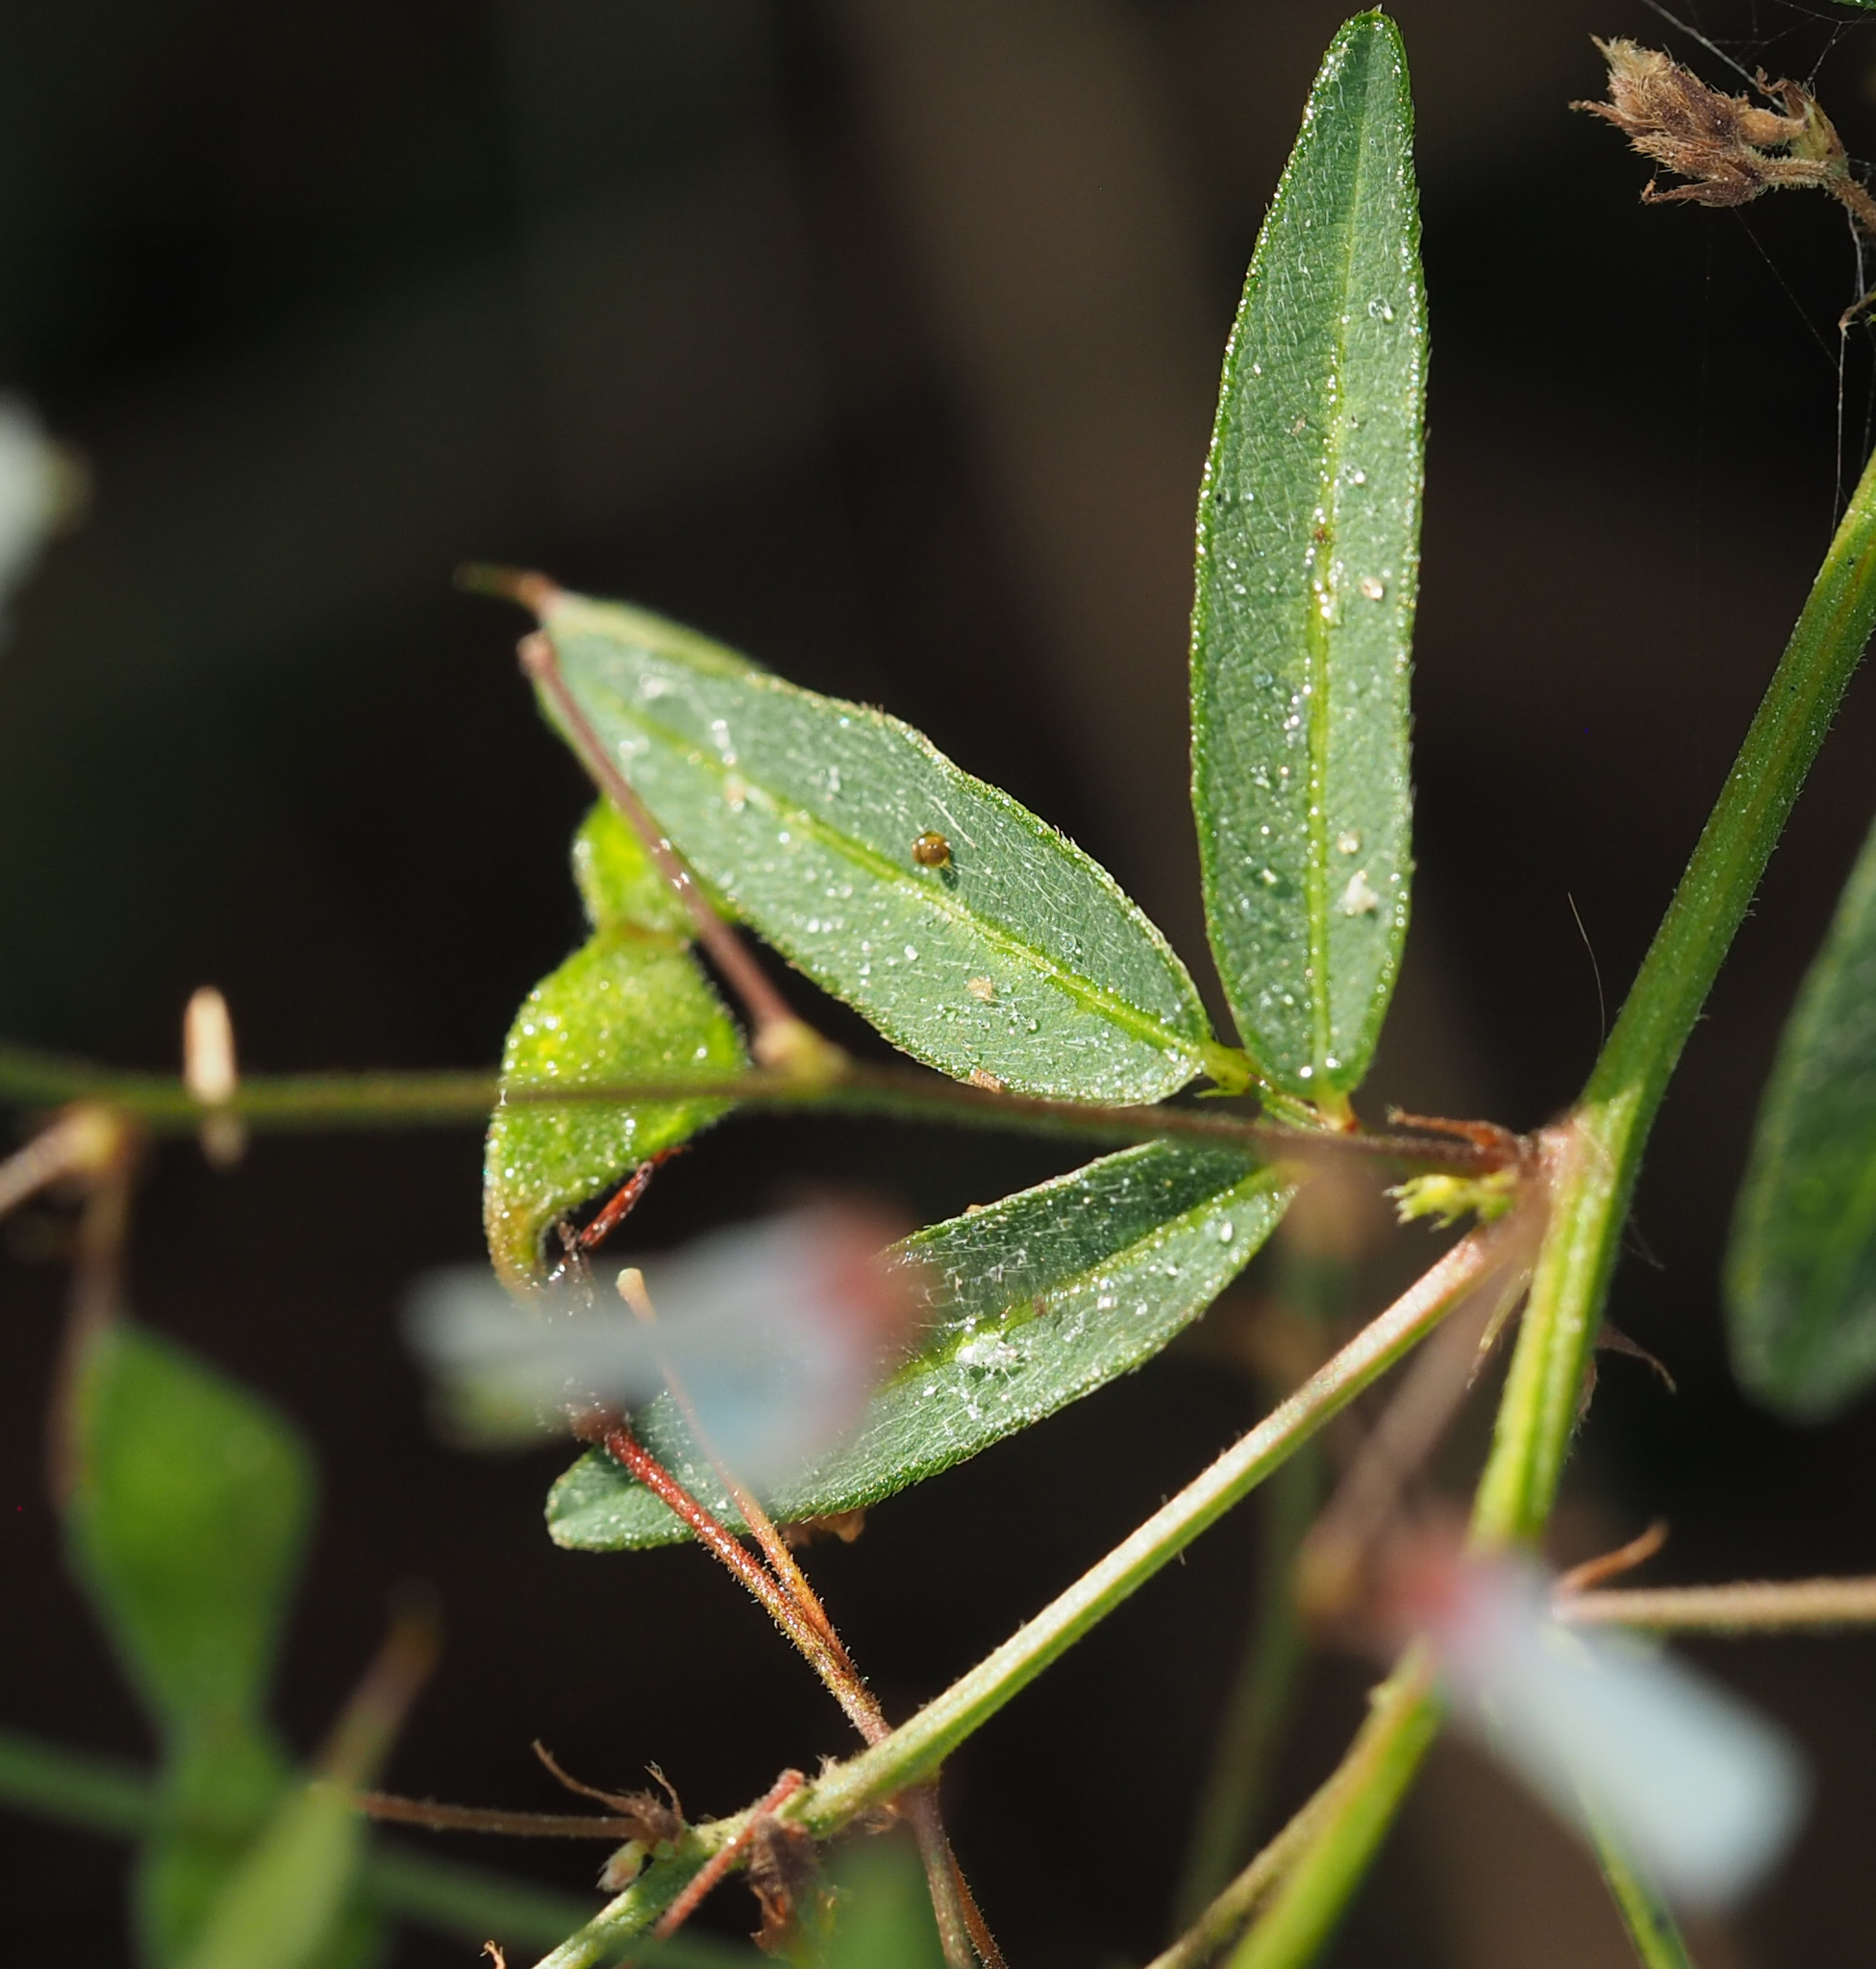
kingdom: Plantae
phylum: Tracheophyta
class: Magnoliopsida
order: Fabales
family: Fabaceae
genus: Desmodium
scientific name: Desmodium paniculatum
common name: Panicled tick-clover
